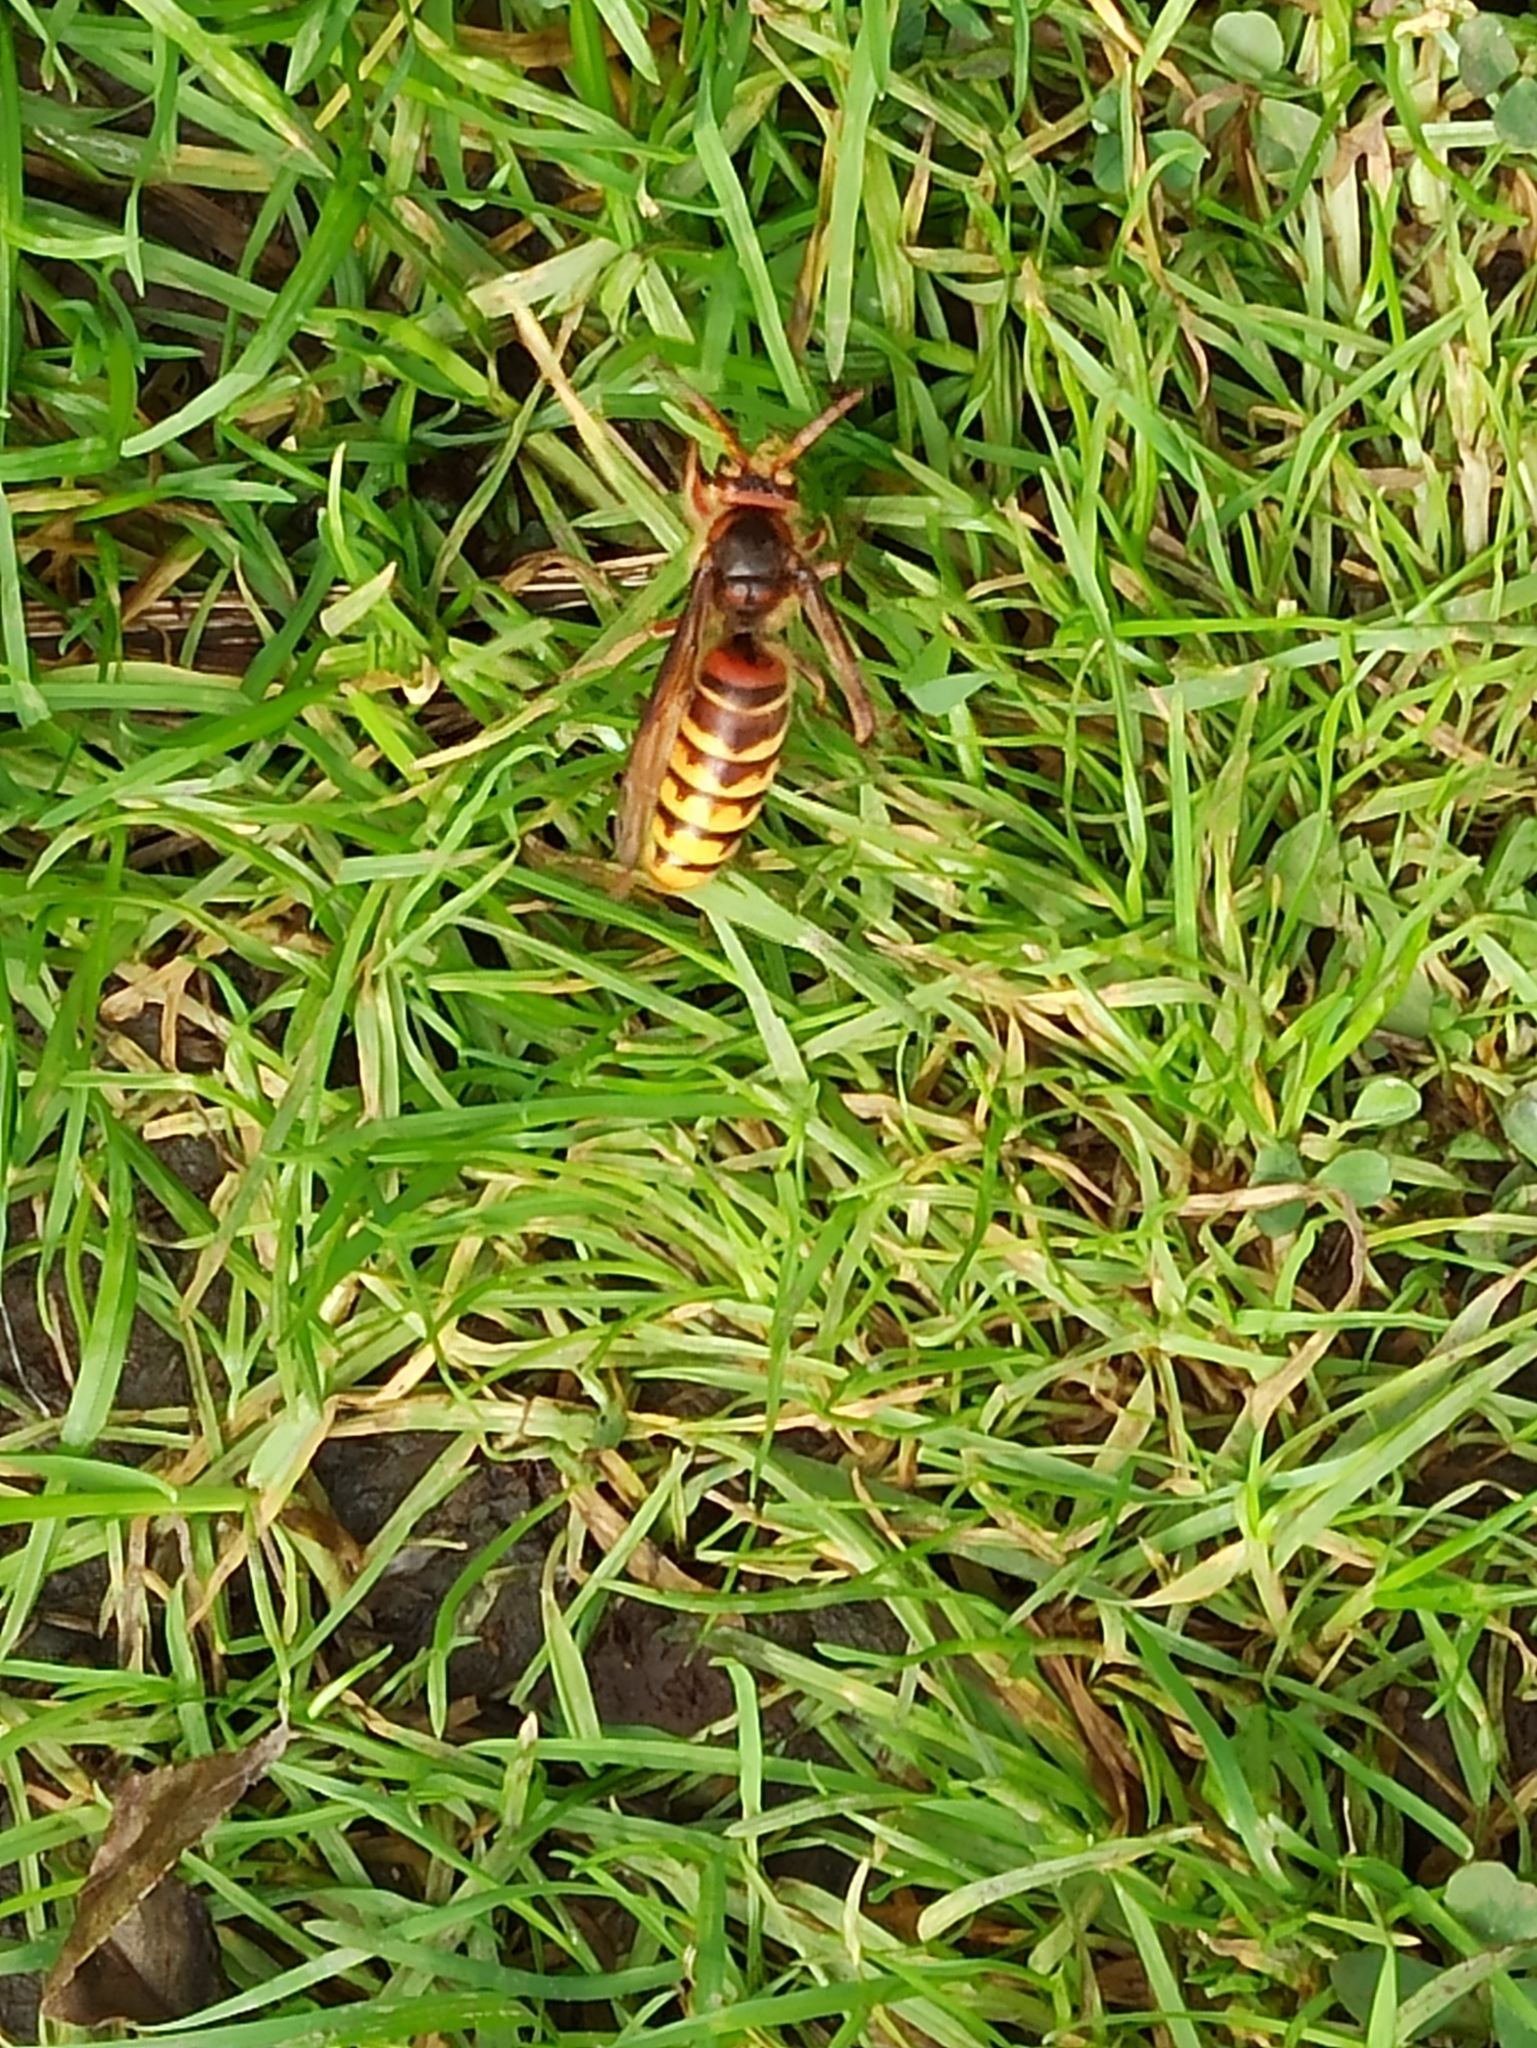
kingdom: Animalia
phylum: Arthropoda
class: Insecta
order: Hymenoptera
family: Vespidae
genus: Vespa
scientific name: Vespa crabro
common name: Hornet
